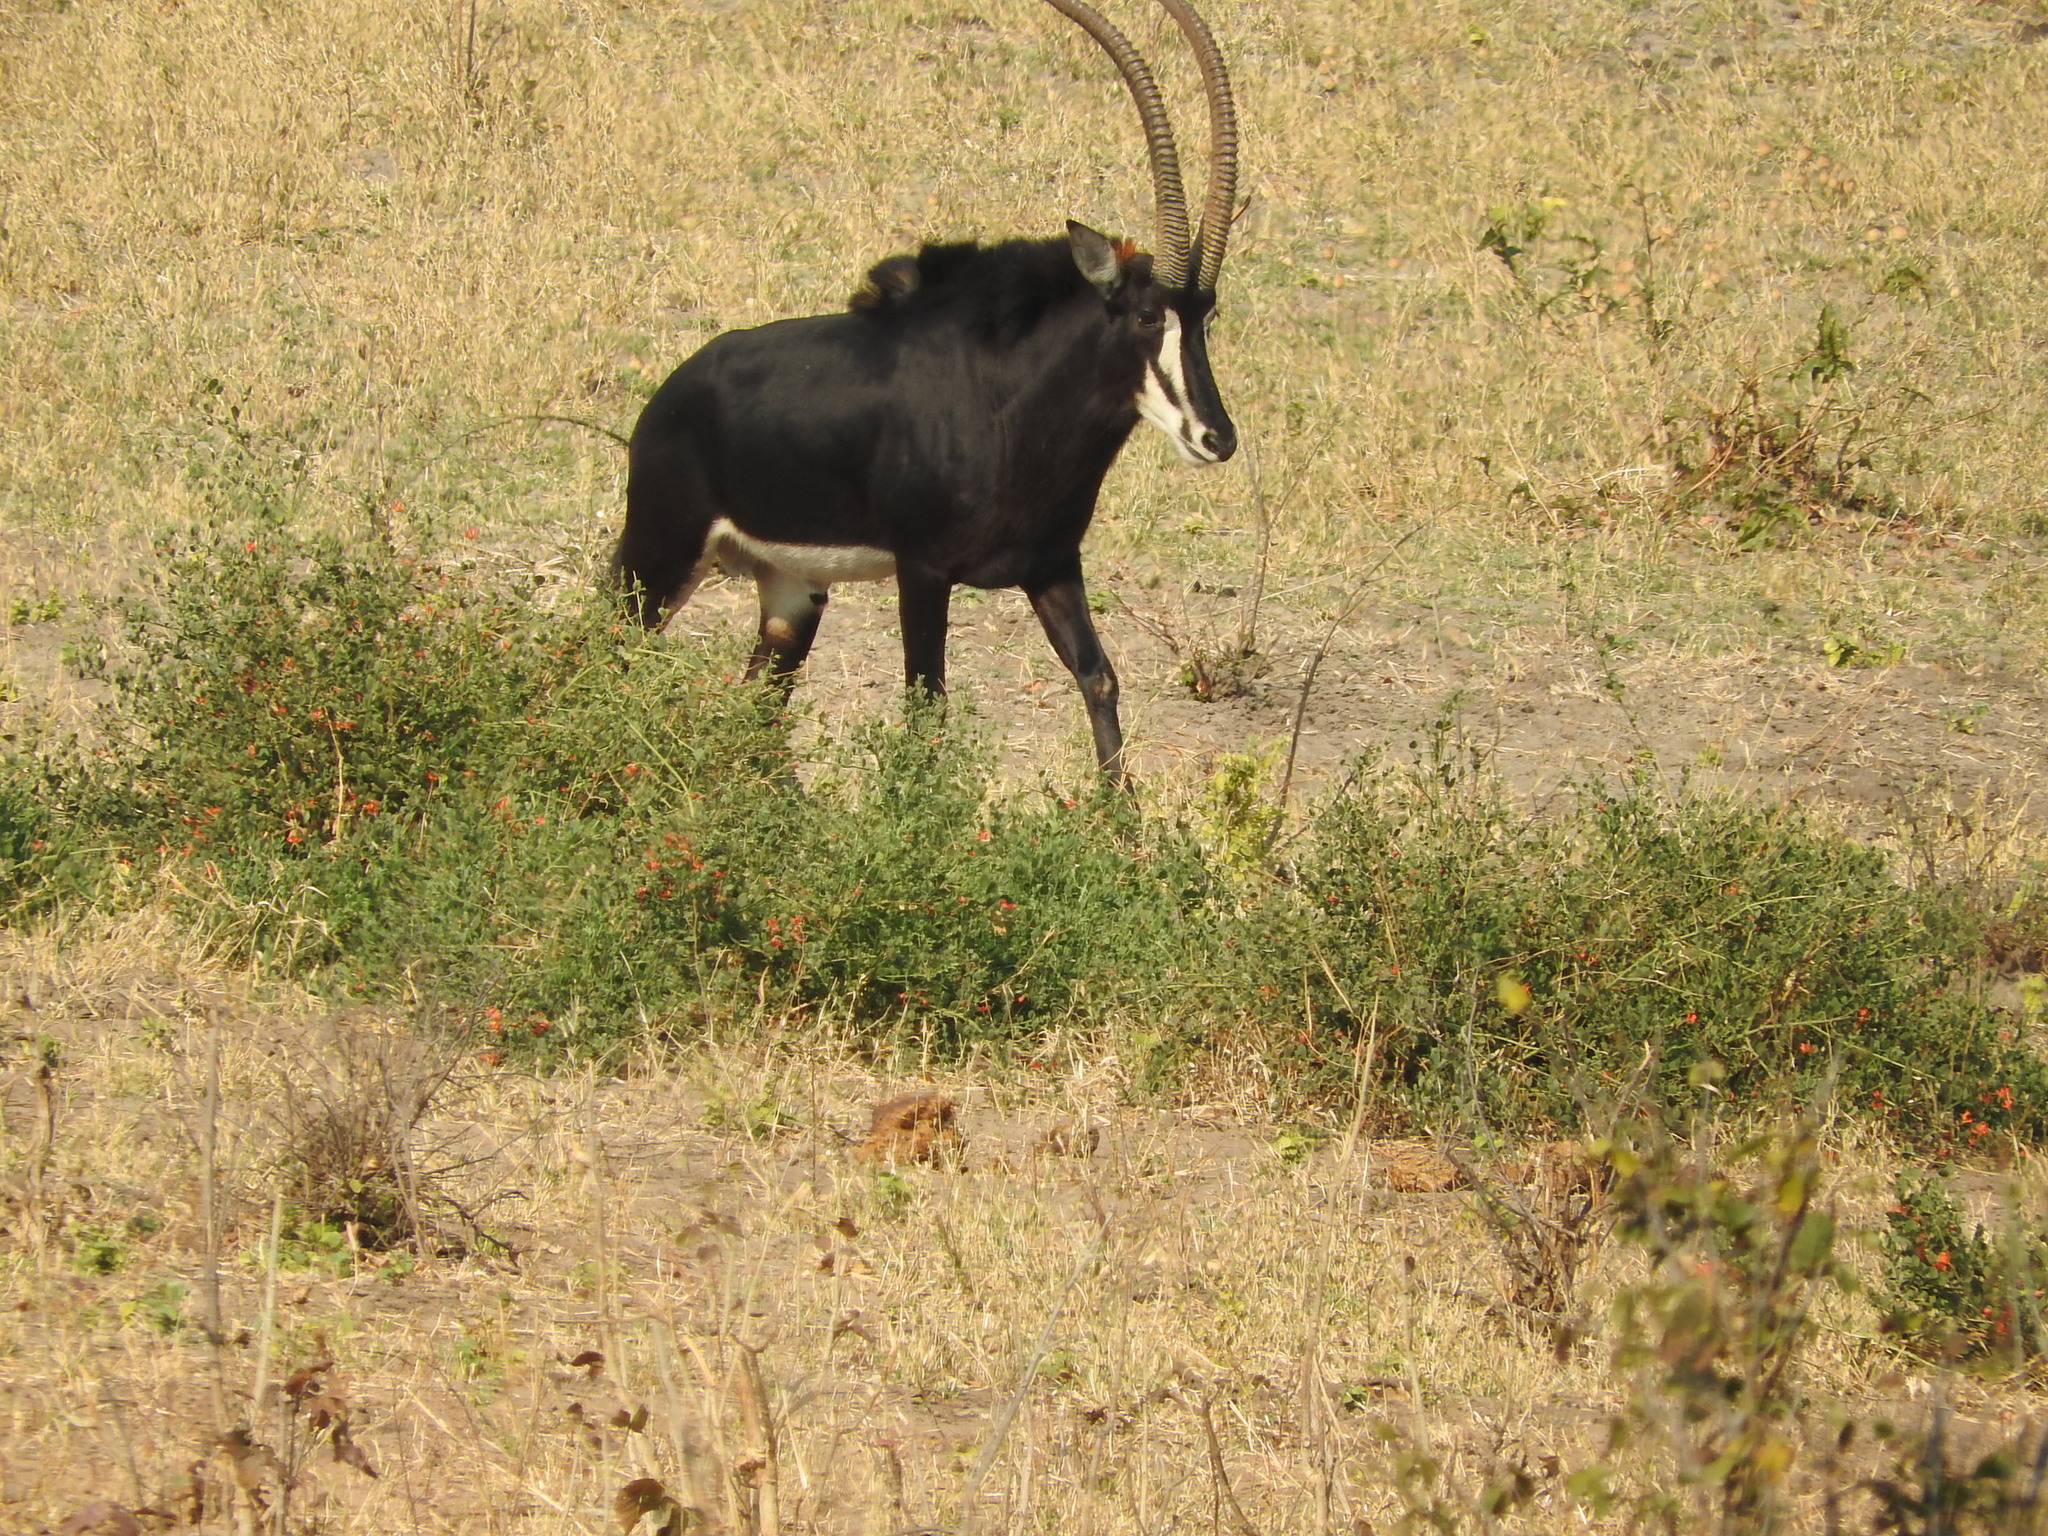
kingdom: Animalia
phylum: Chordata
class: Mammalia
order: Artiodactyla
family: Bovidae
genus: Hippotragus
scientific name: Hippotragus niger
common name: Sable antelope
